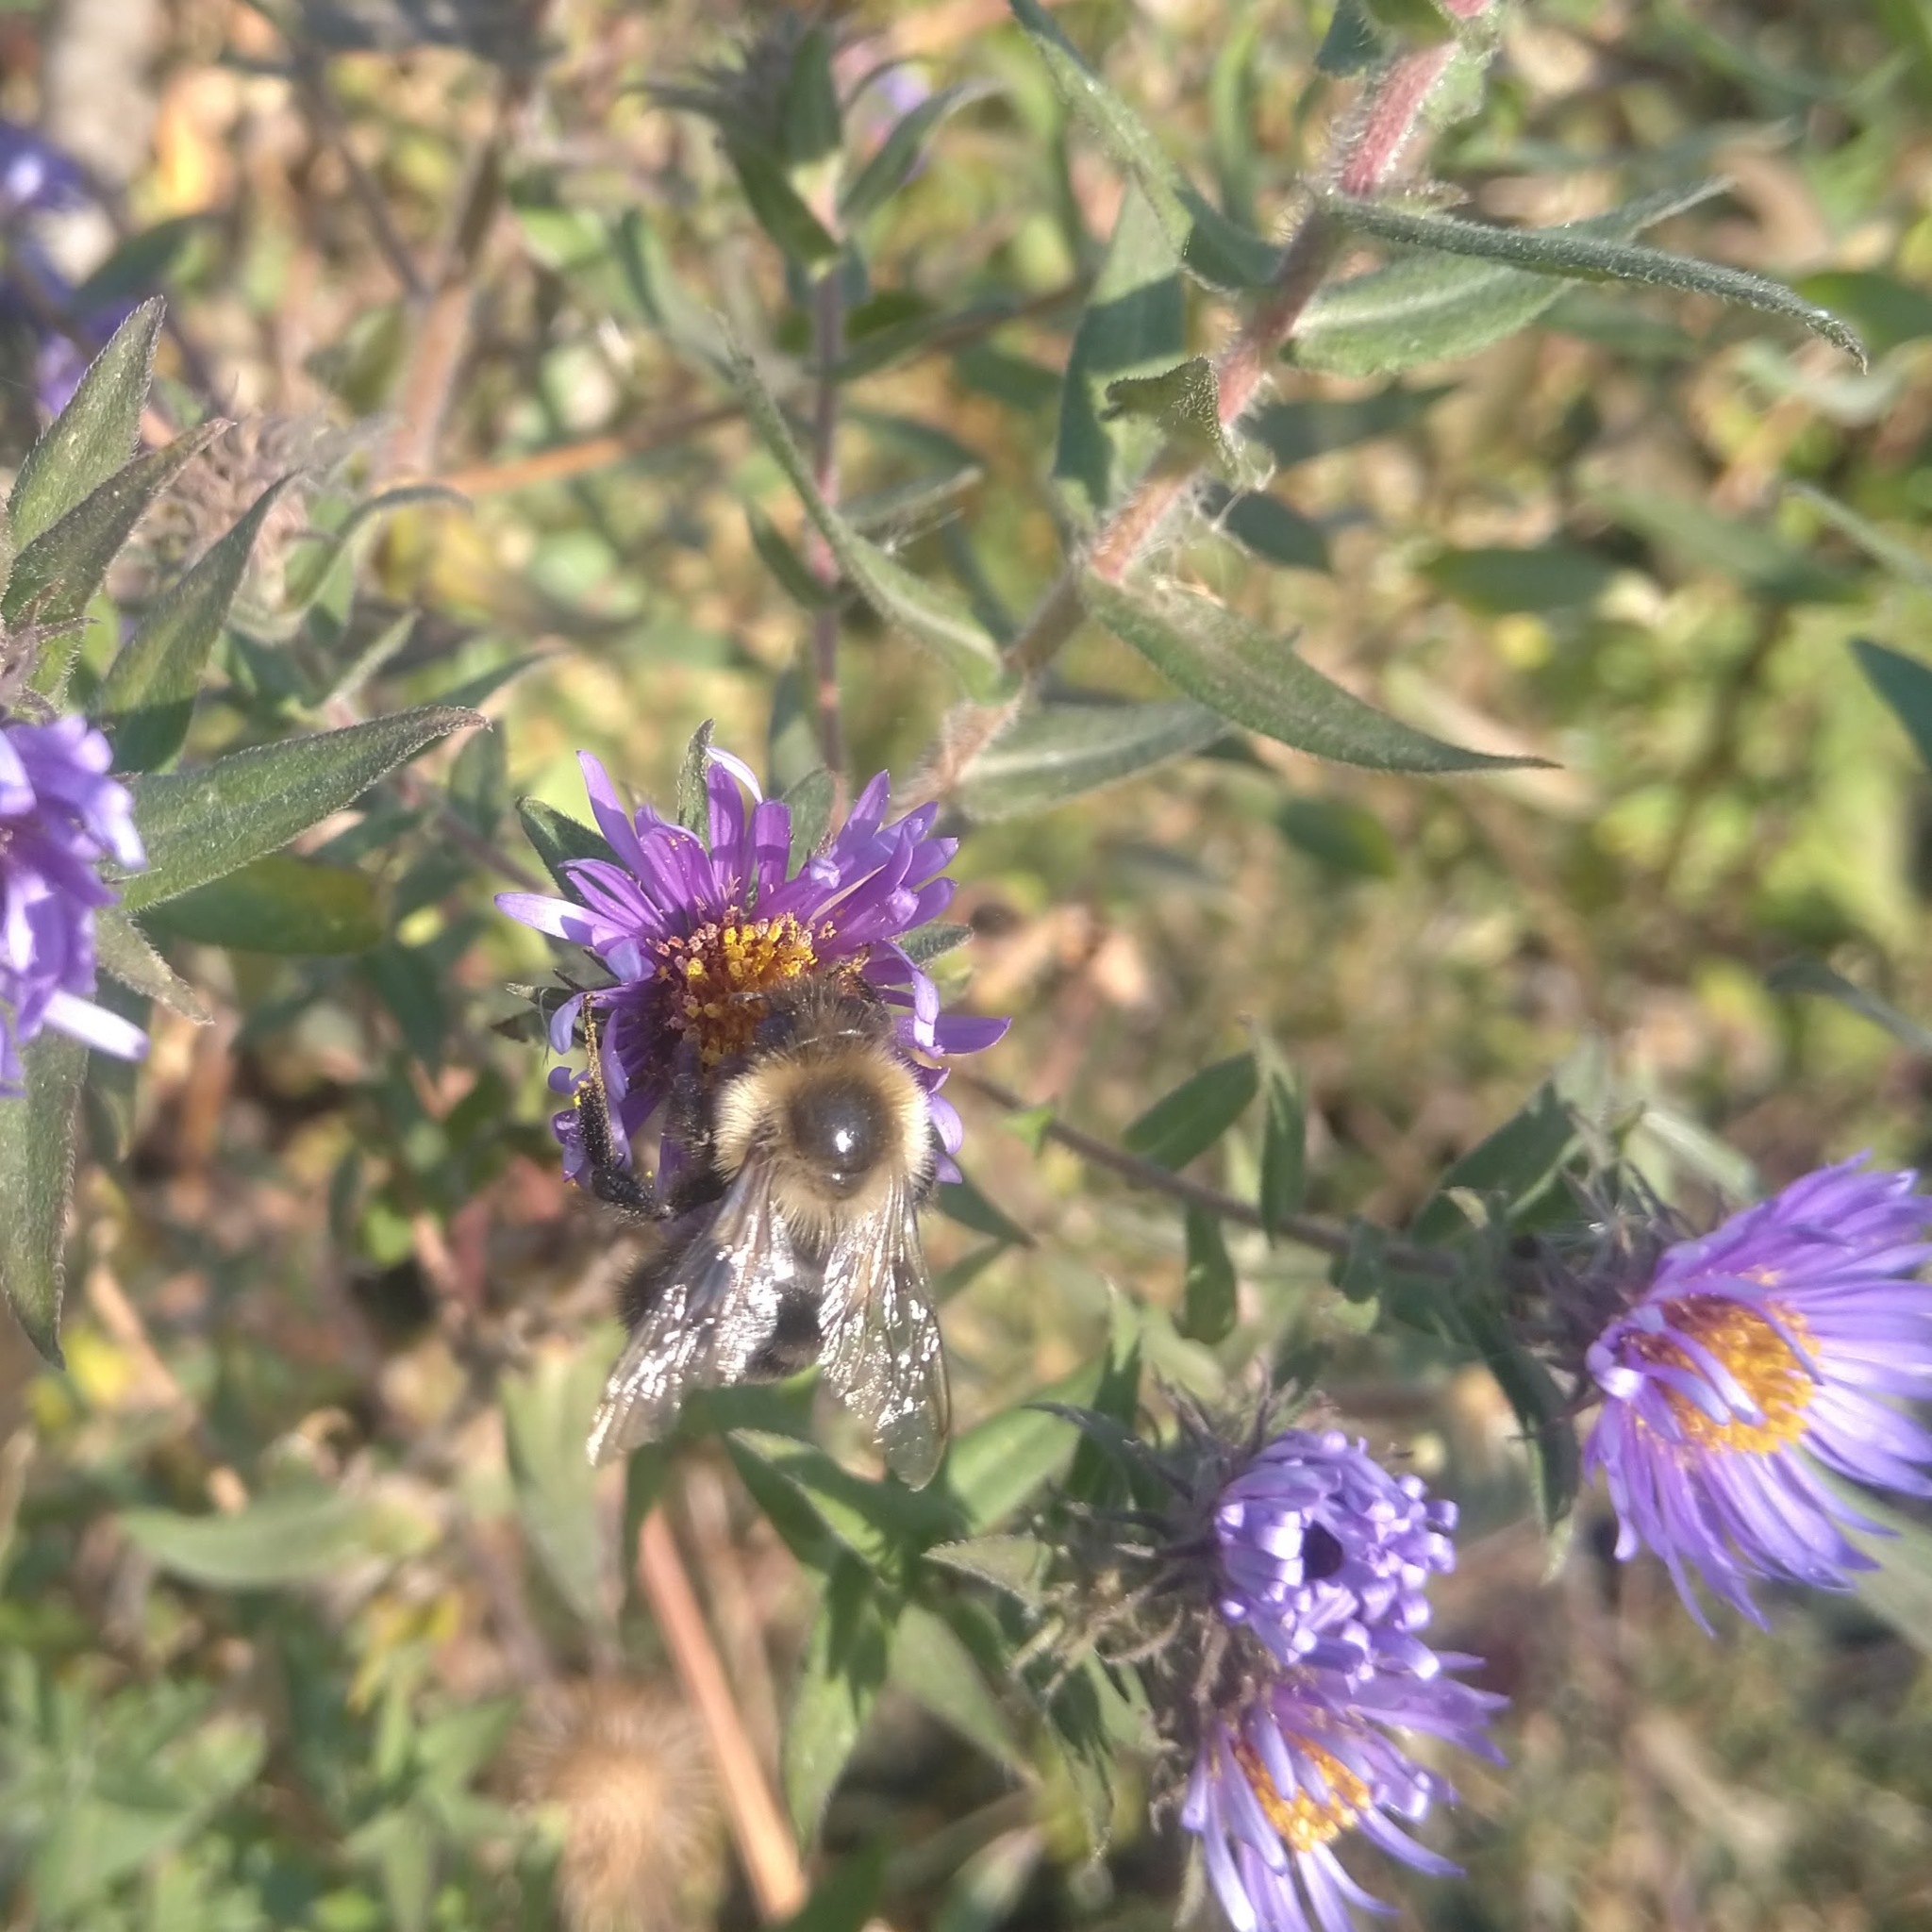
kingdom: Animalia
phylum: Arthropoda
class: Insecta
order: Hymenoptera
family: Apidae
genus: Bombus
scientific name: Bombus impatiens
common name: Common eastern bumble bee
